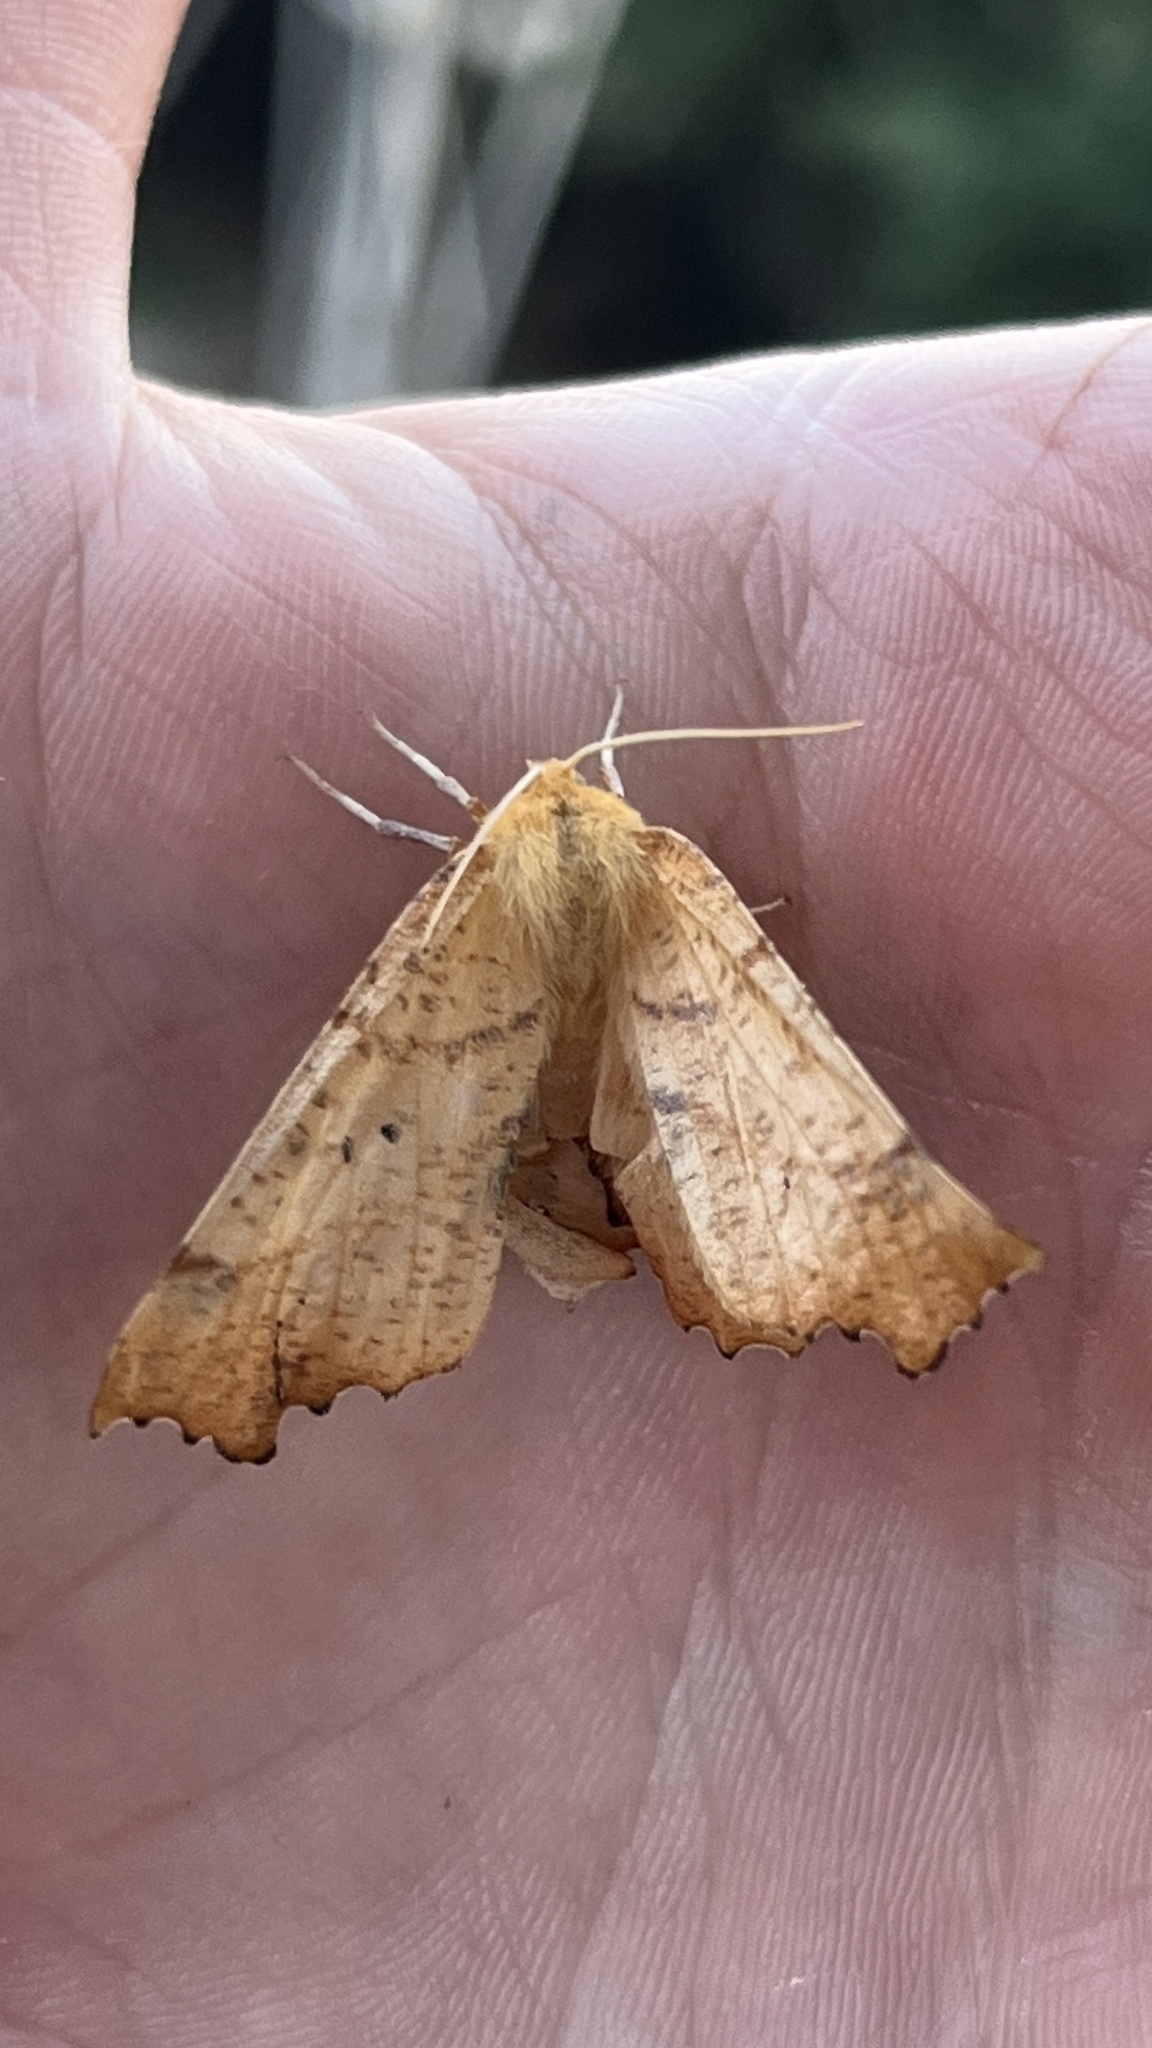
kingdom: Animalia
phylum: Arthropoda
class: Insecta
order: Lepidoptera
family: Geometridae
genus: Ennomos
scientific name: Ennomos autumnaria
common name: Large thorn
